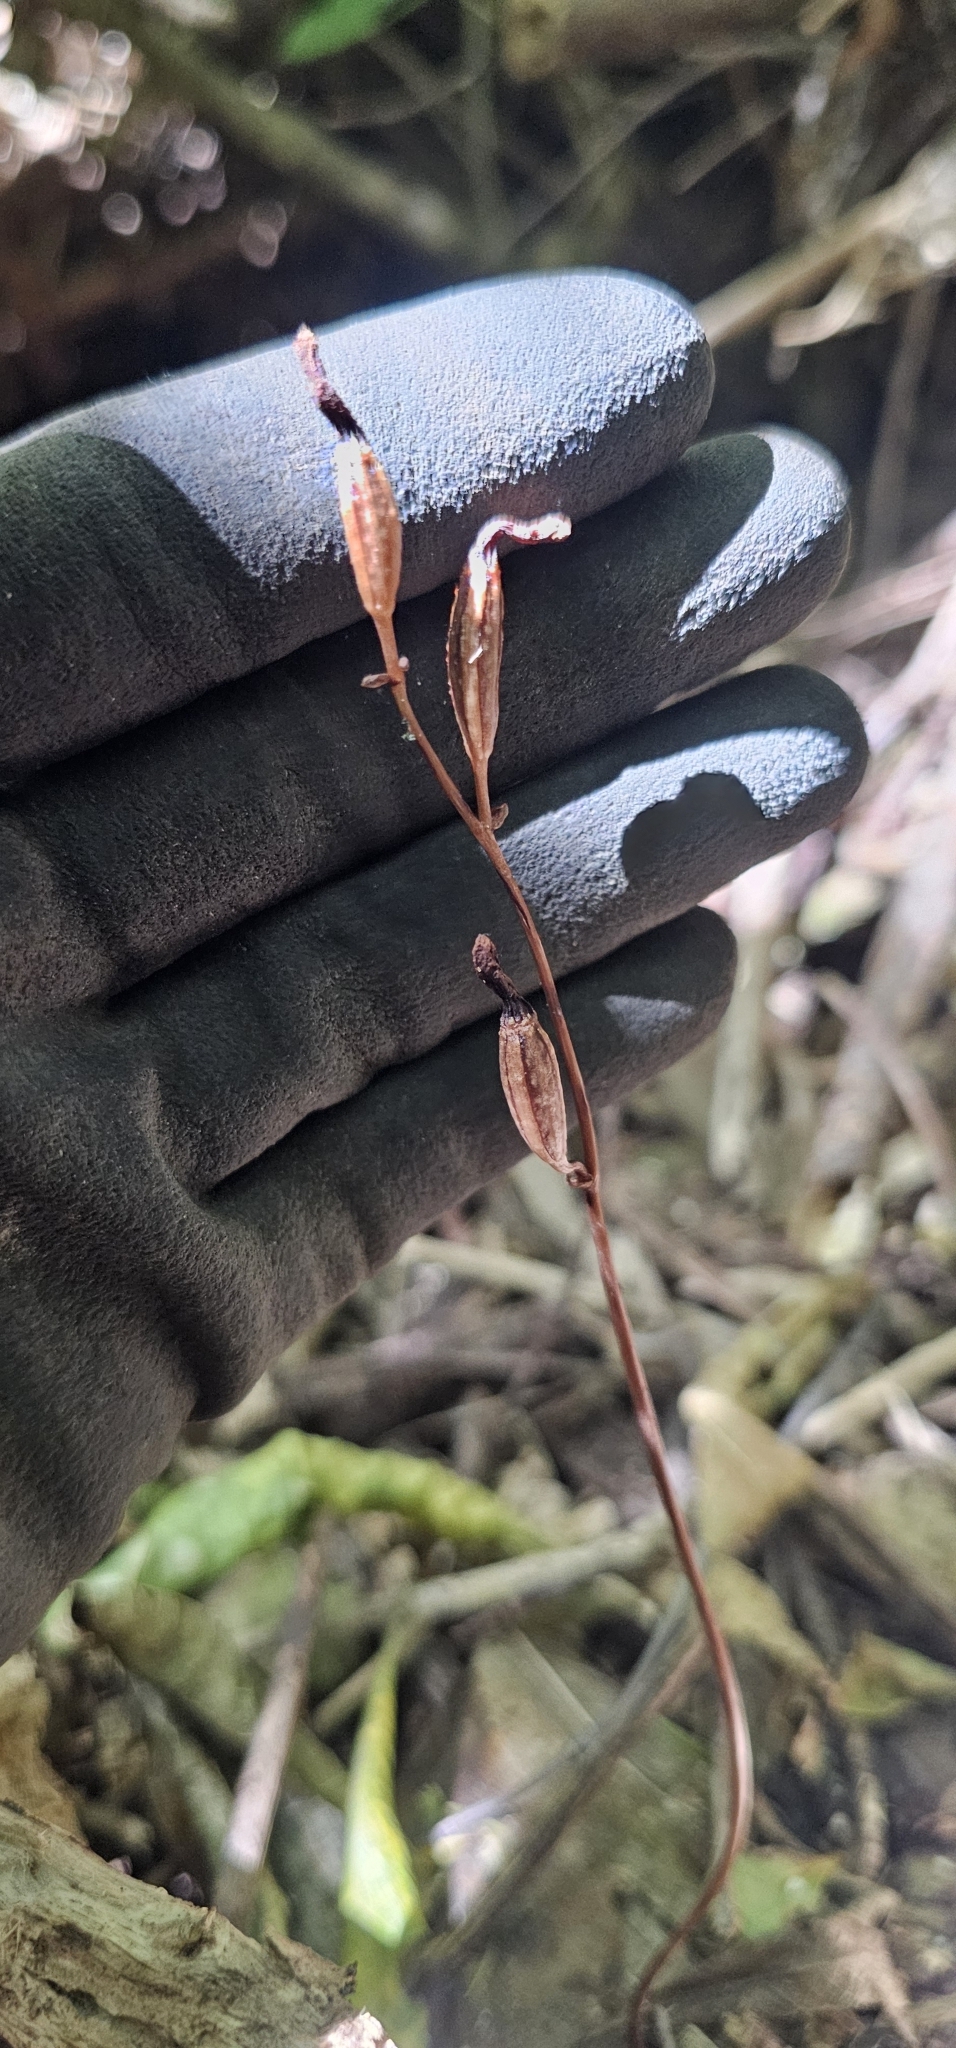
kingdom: Plantae
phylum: Tracheophyta
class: Liliopsida
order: Asparagales
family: Orchidaceae
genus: Gastrodia
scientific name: Gastrodia minor
